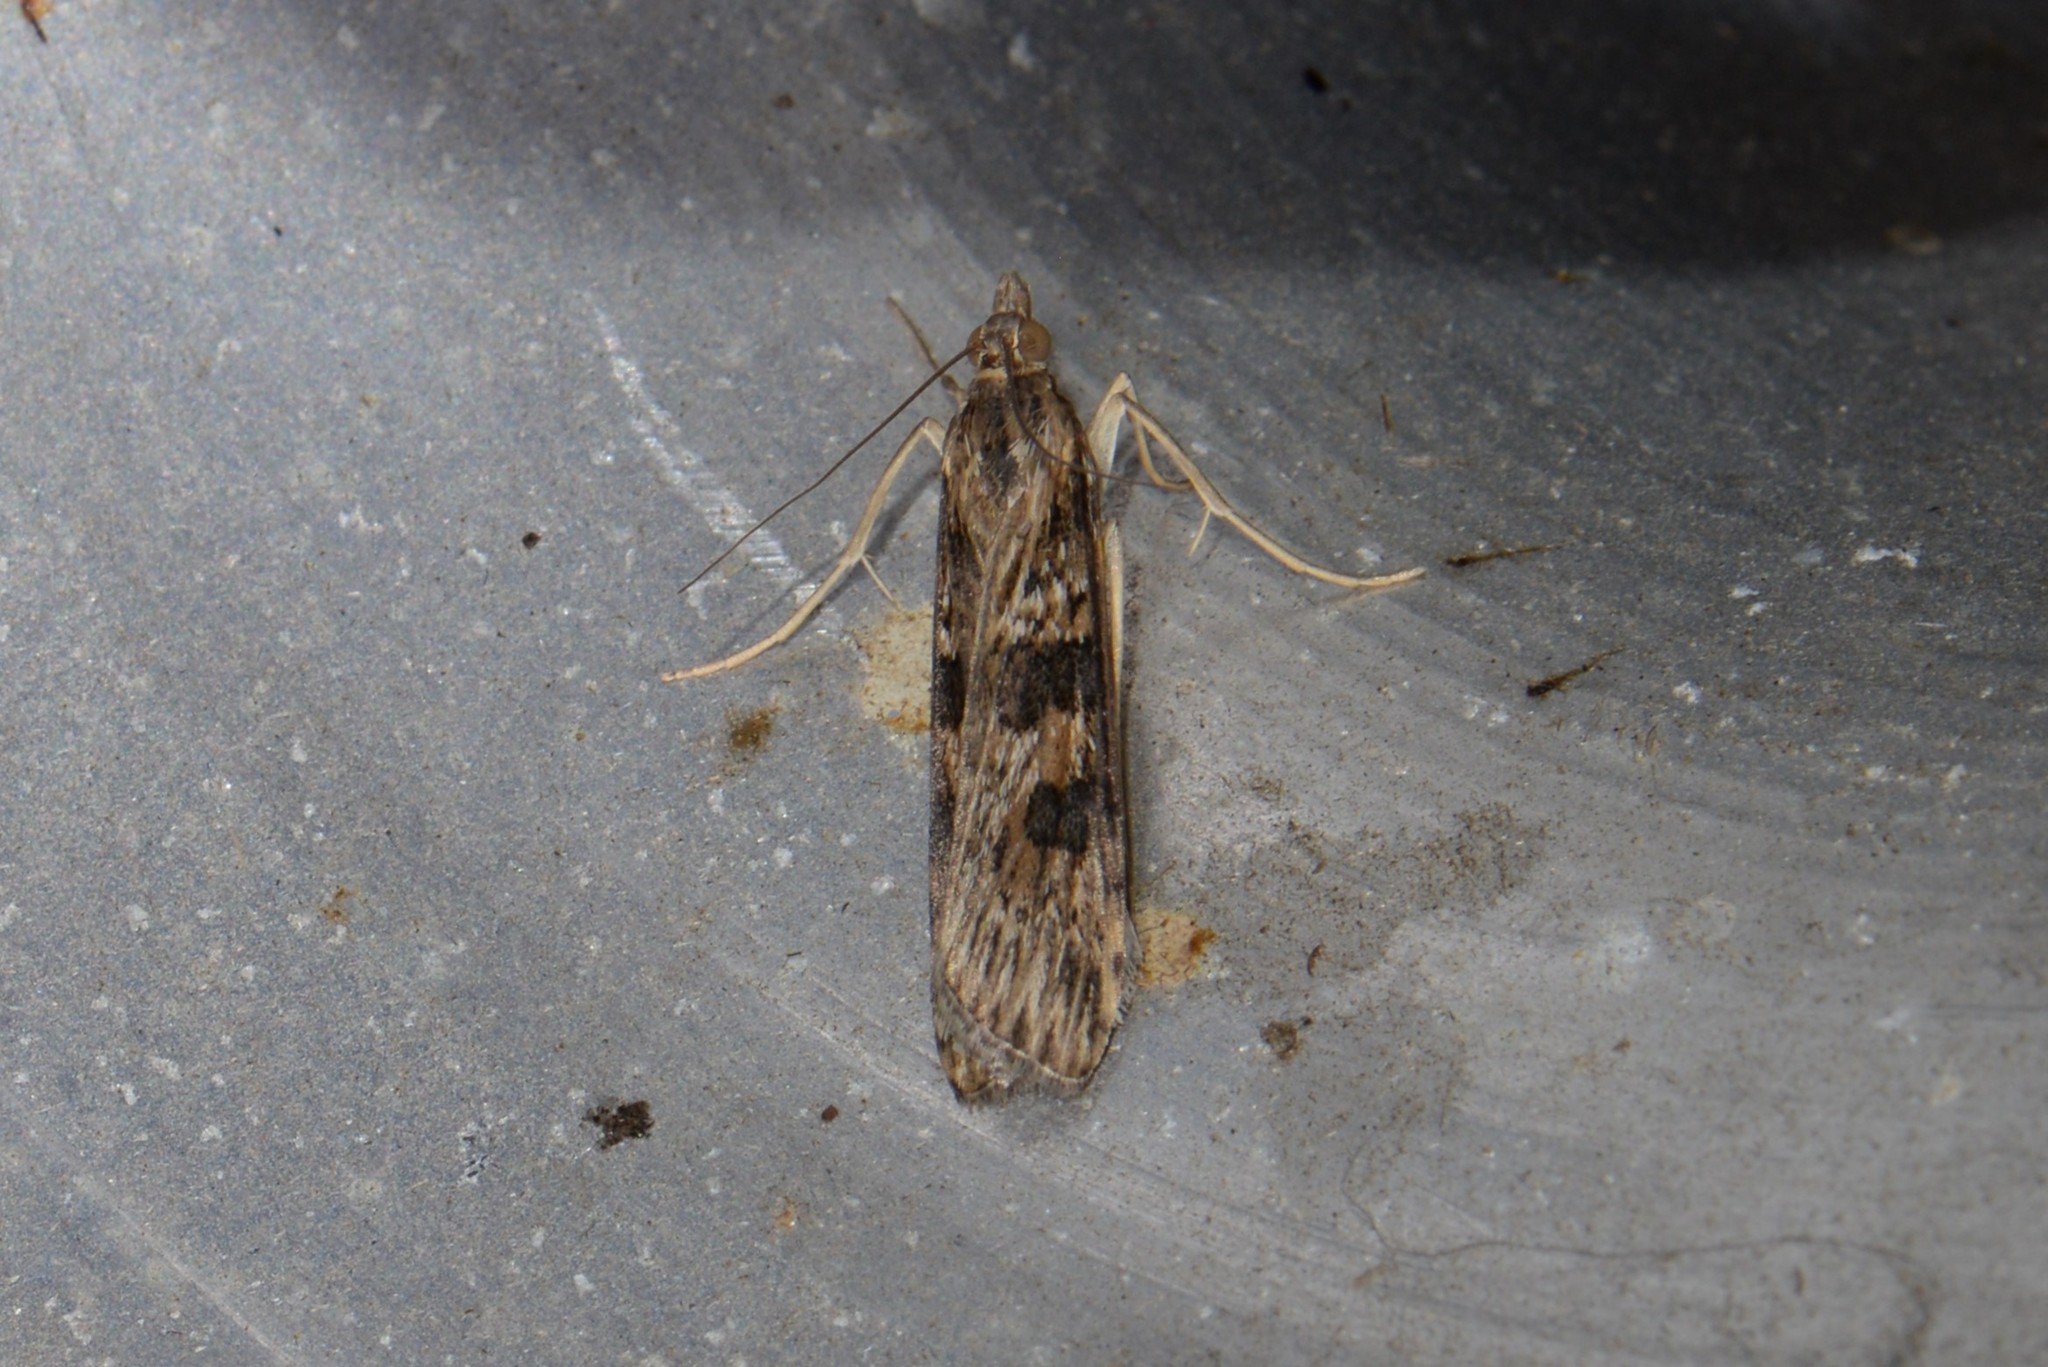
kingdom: Animalia
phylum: Arthropoda
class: Insecta
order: Lepidoptera
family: Crambidae
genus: Nomophila
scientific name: Nomophila nearctica
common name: American rush veneer
